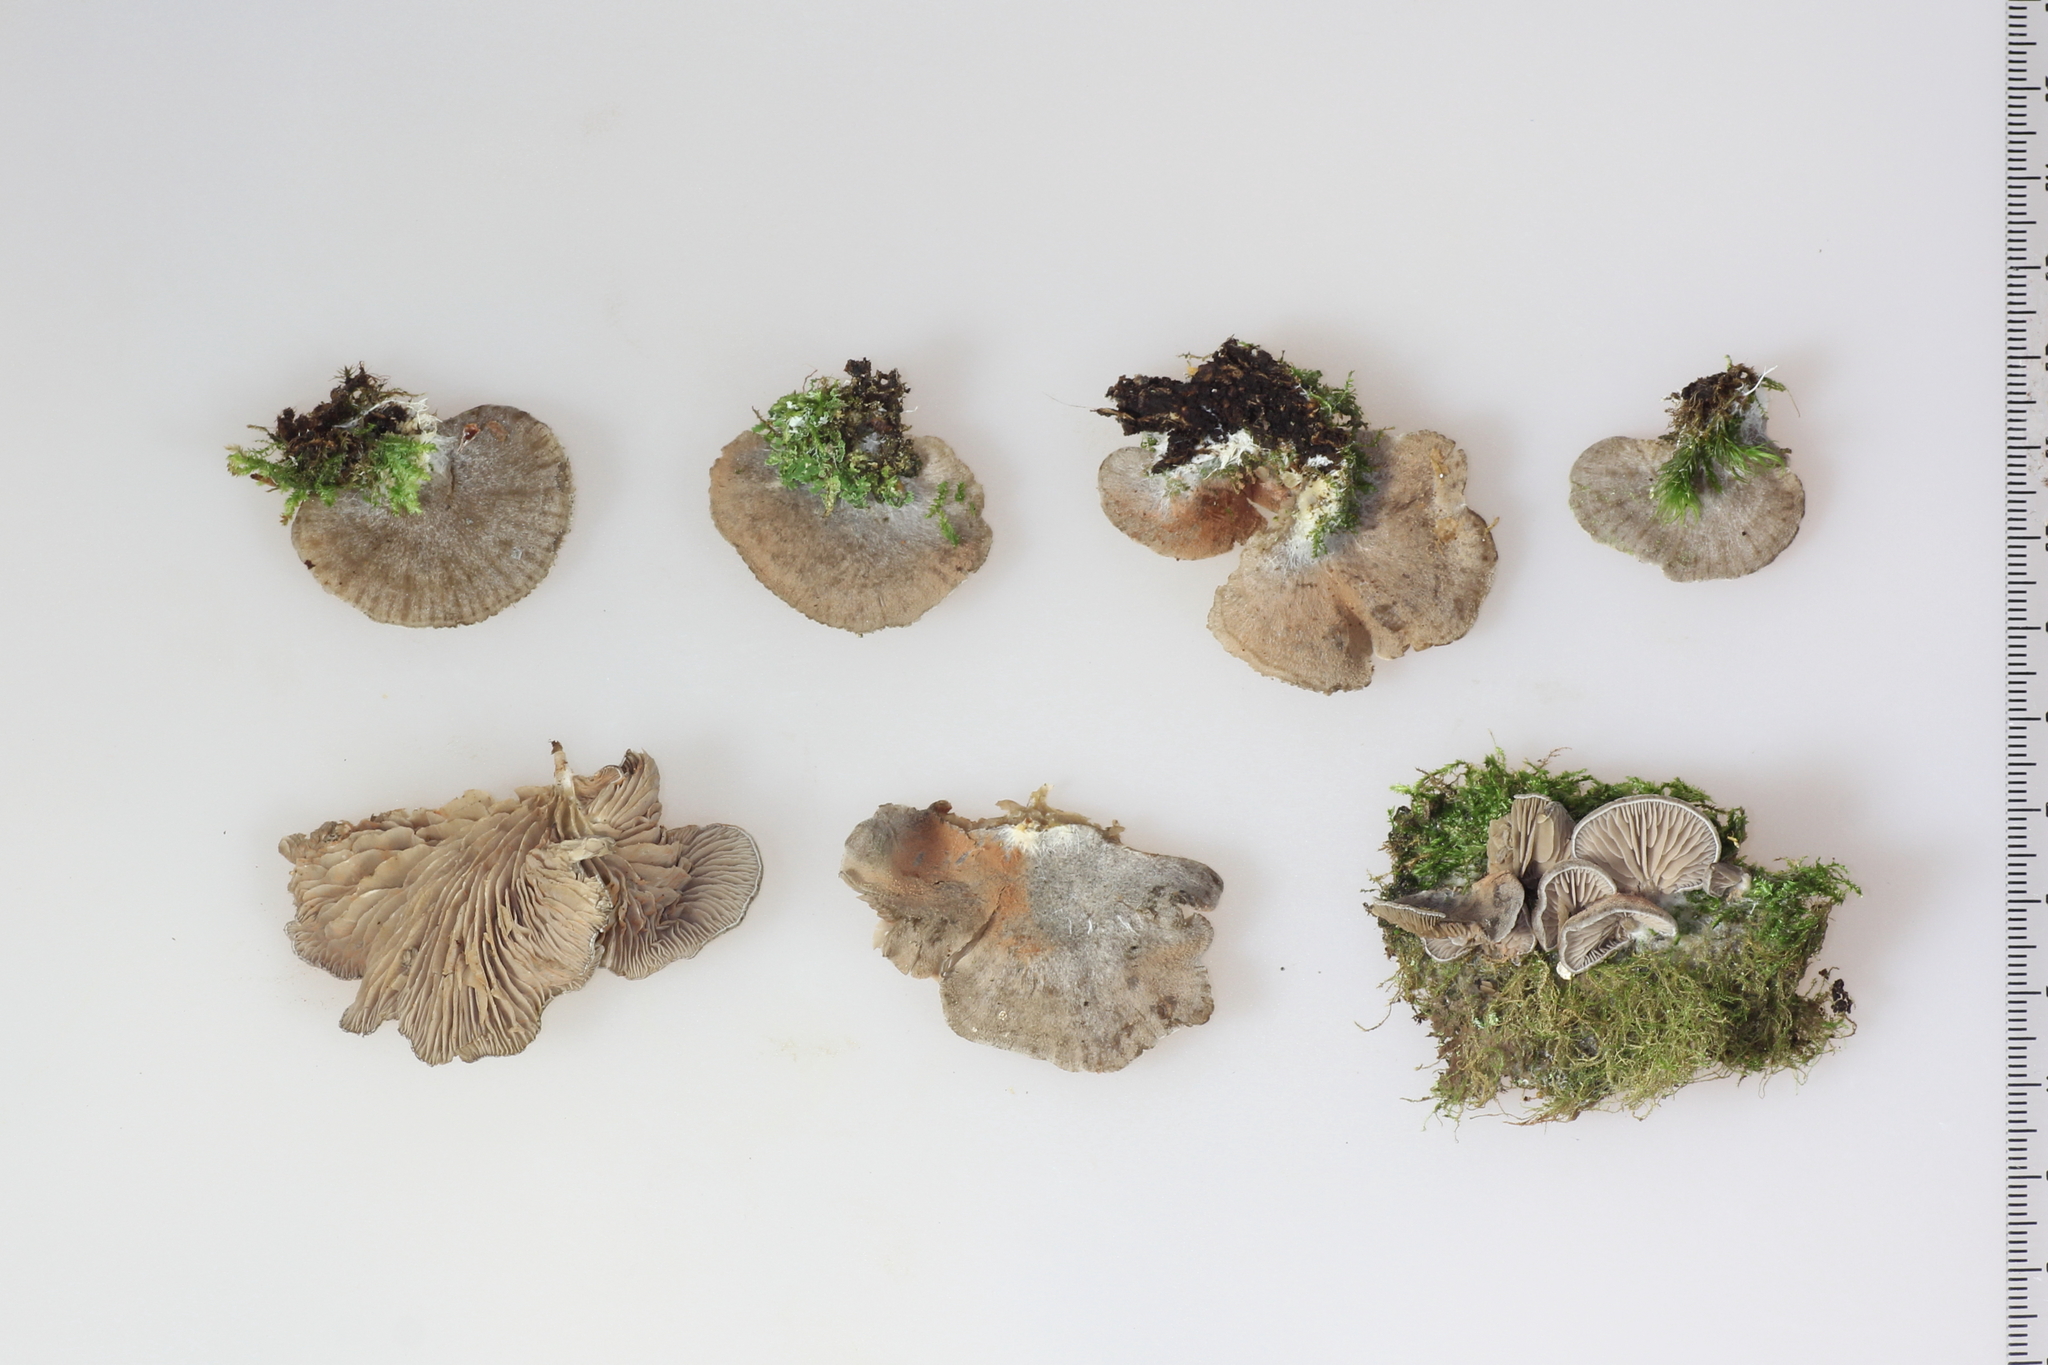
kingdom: Fungi
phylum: Basidiomycota
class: Agaricomycetes
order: Agaricales
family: Entolomataceae
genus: Entoloma
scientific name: Entoloma depluens
